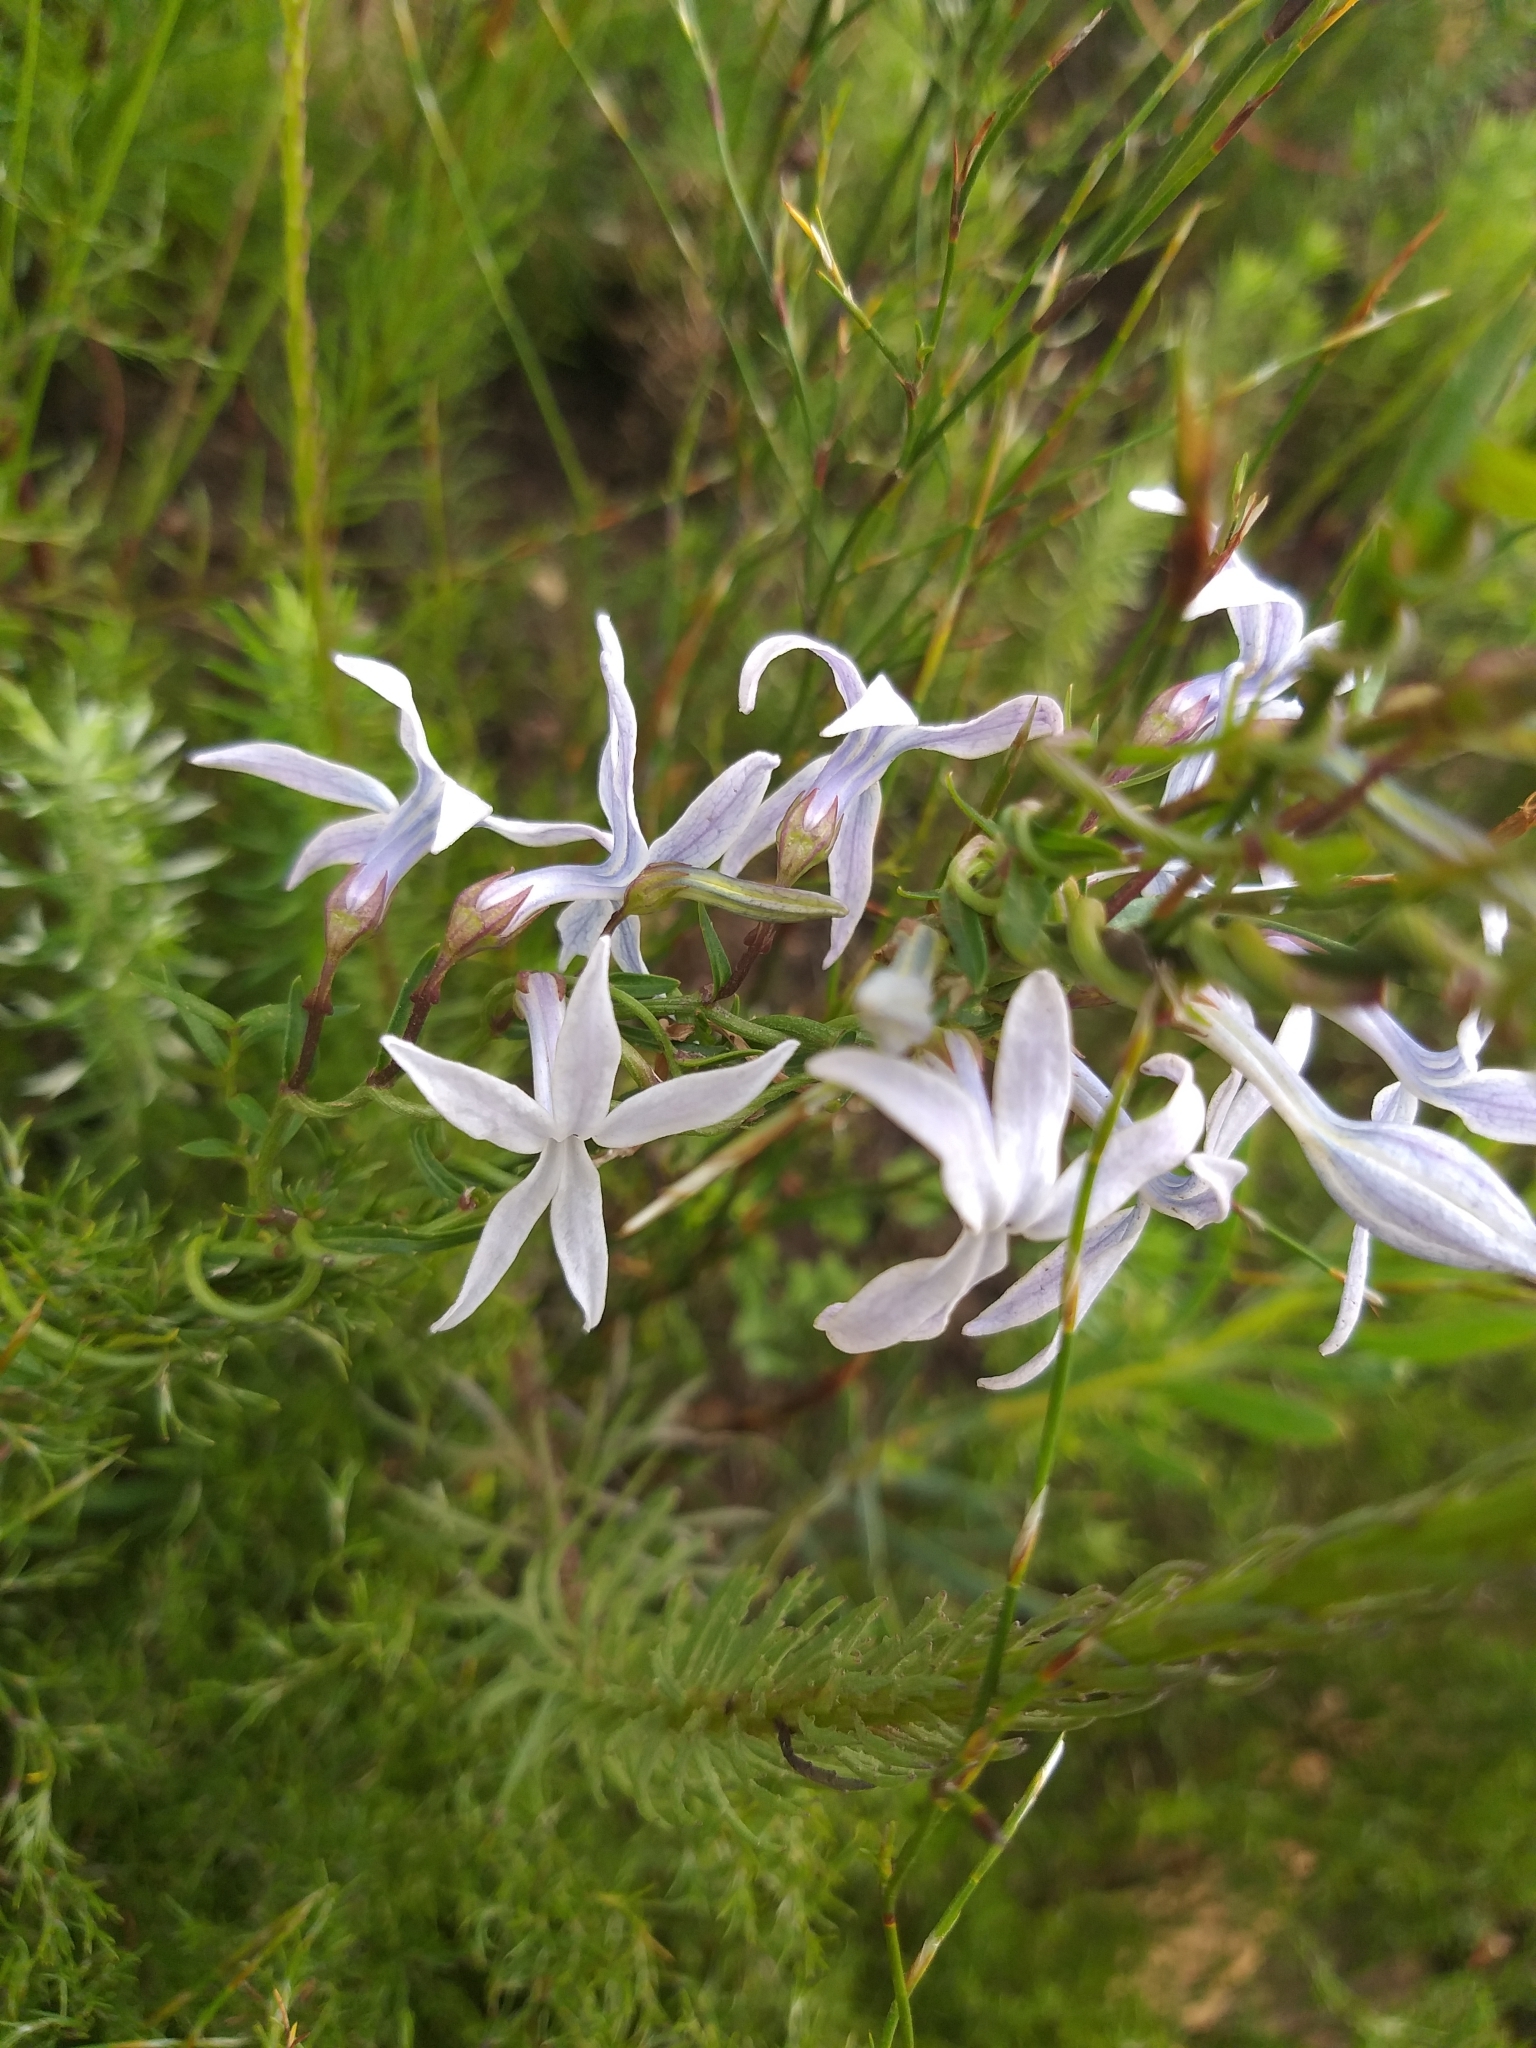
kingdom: Plantae
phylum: Tracheophyta
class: Magnoliopsida
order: Asterales
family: Campanulaceae
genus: Cyphia
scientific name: Cyphia volubilis
